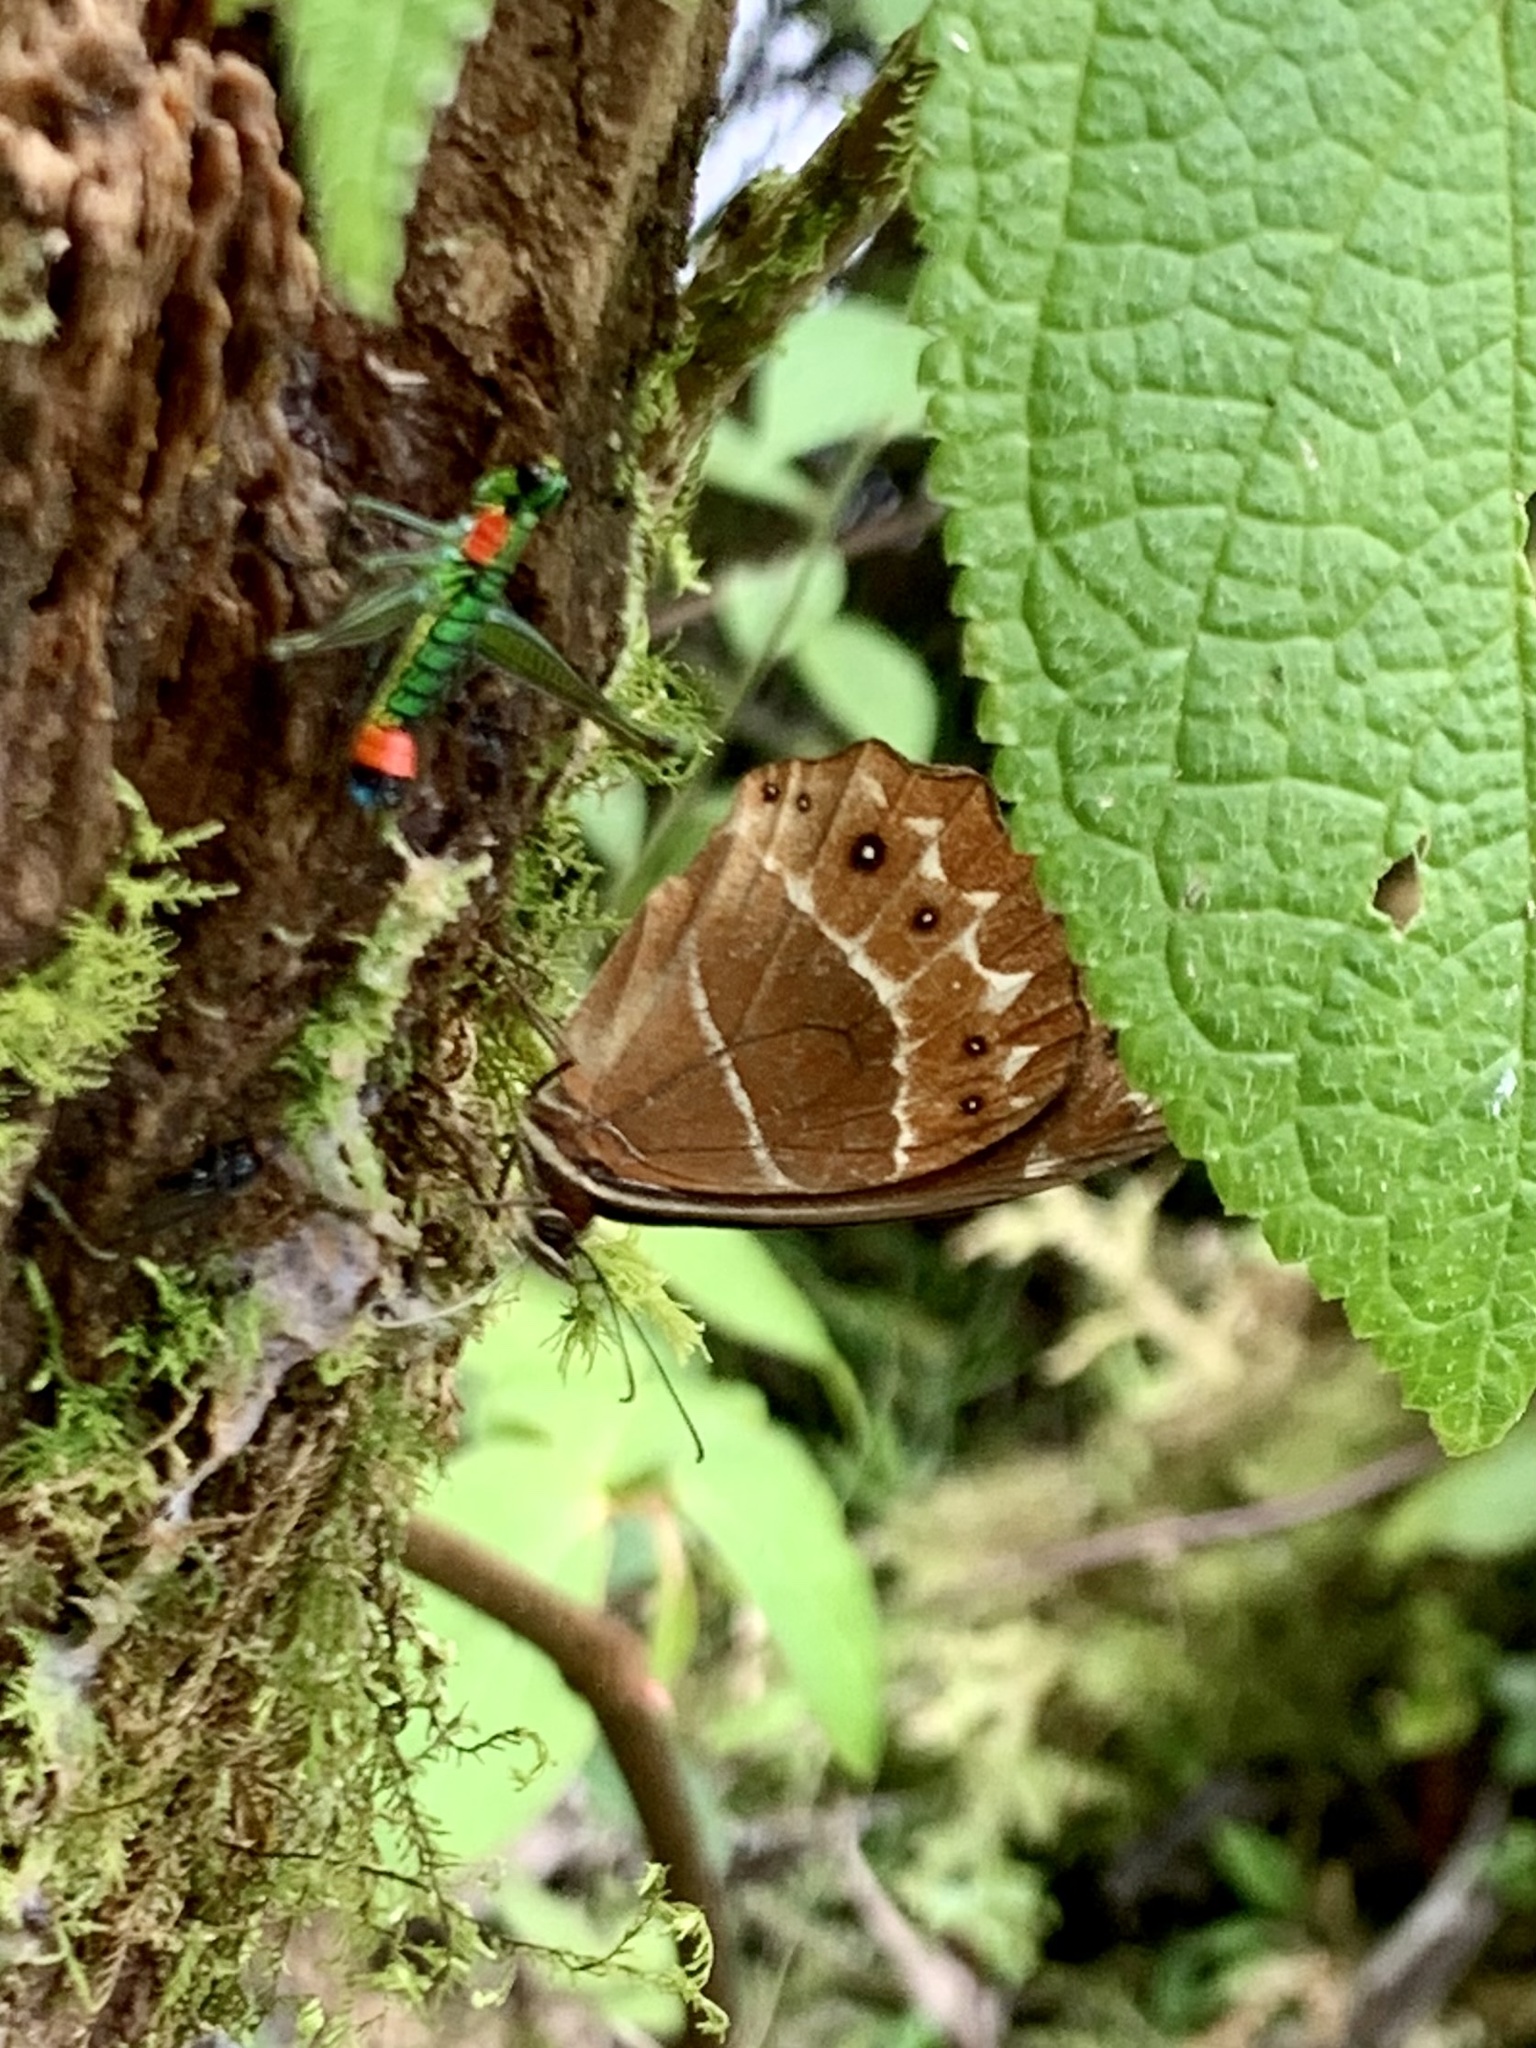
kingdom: Animalia
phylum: Arthropoda
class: Insecta
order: Lepidoptera
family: Nymphalidae
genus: Oxeoschistus
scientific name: Oxeoschistus puerta
